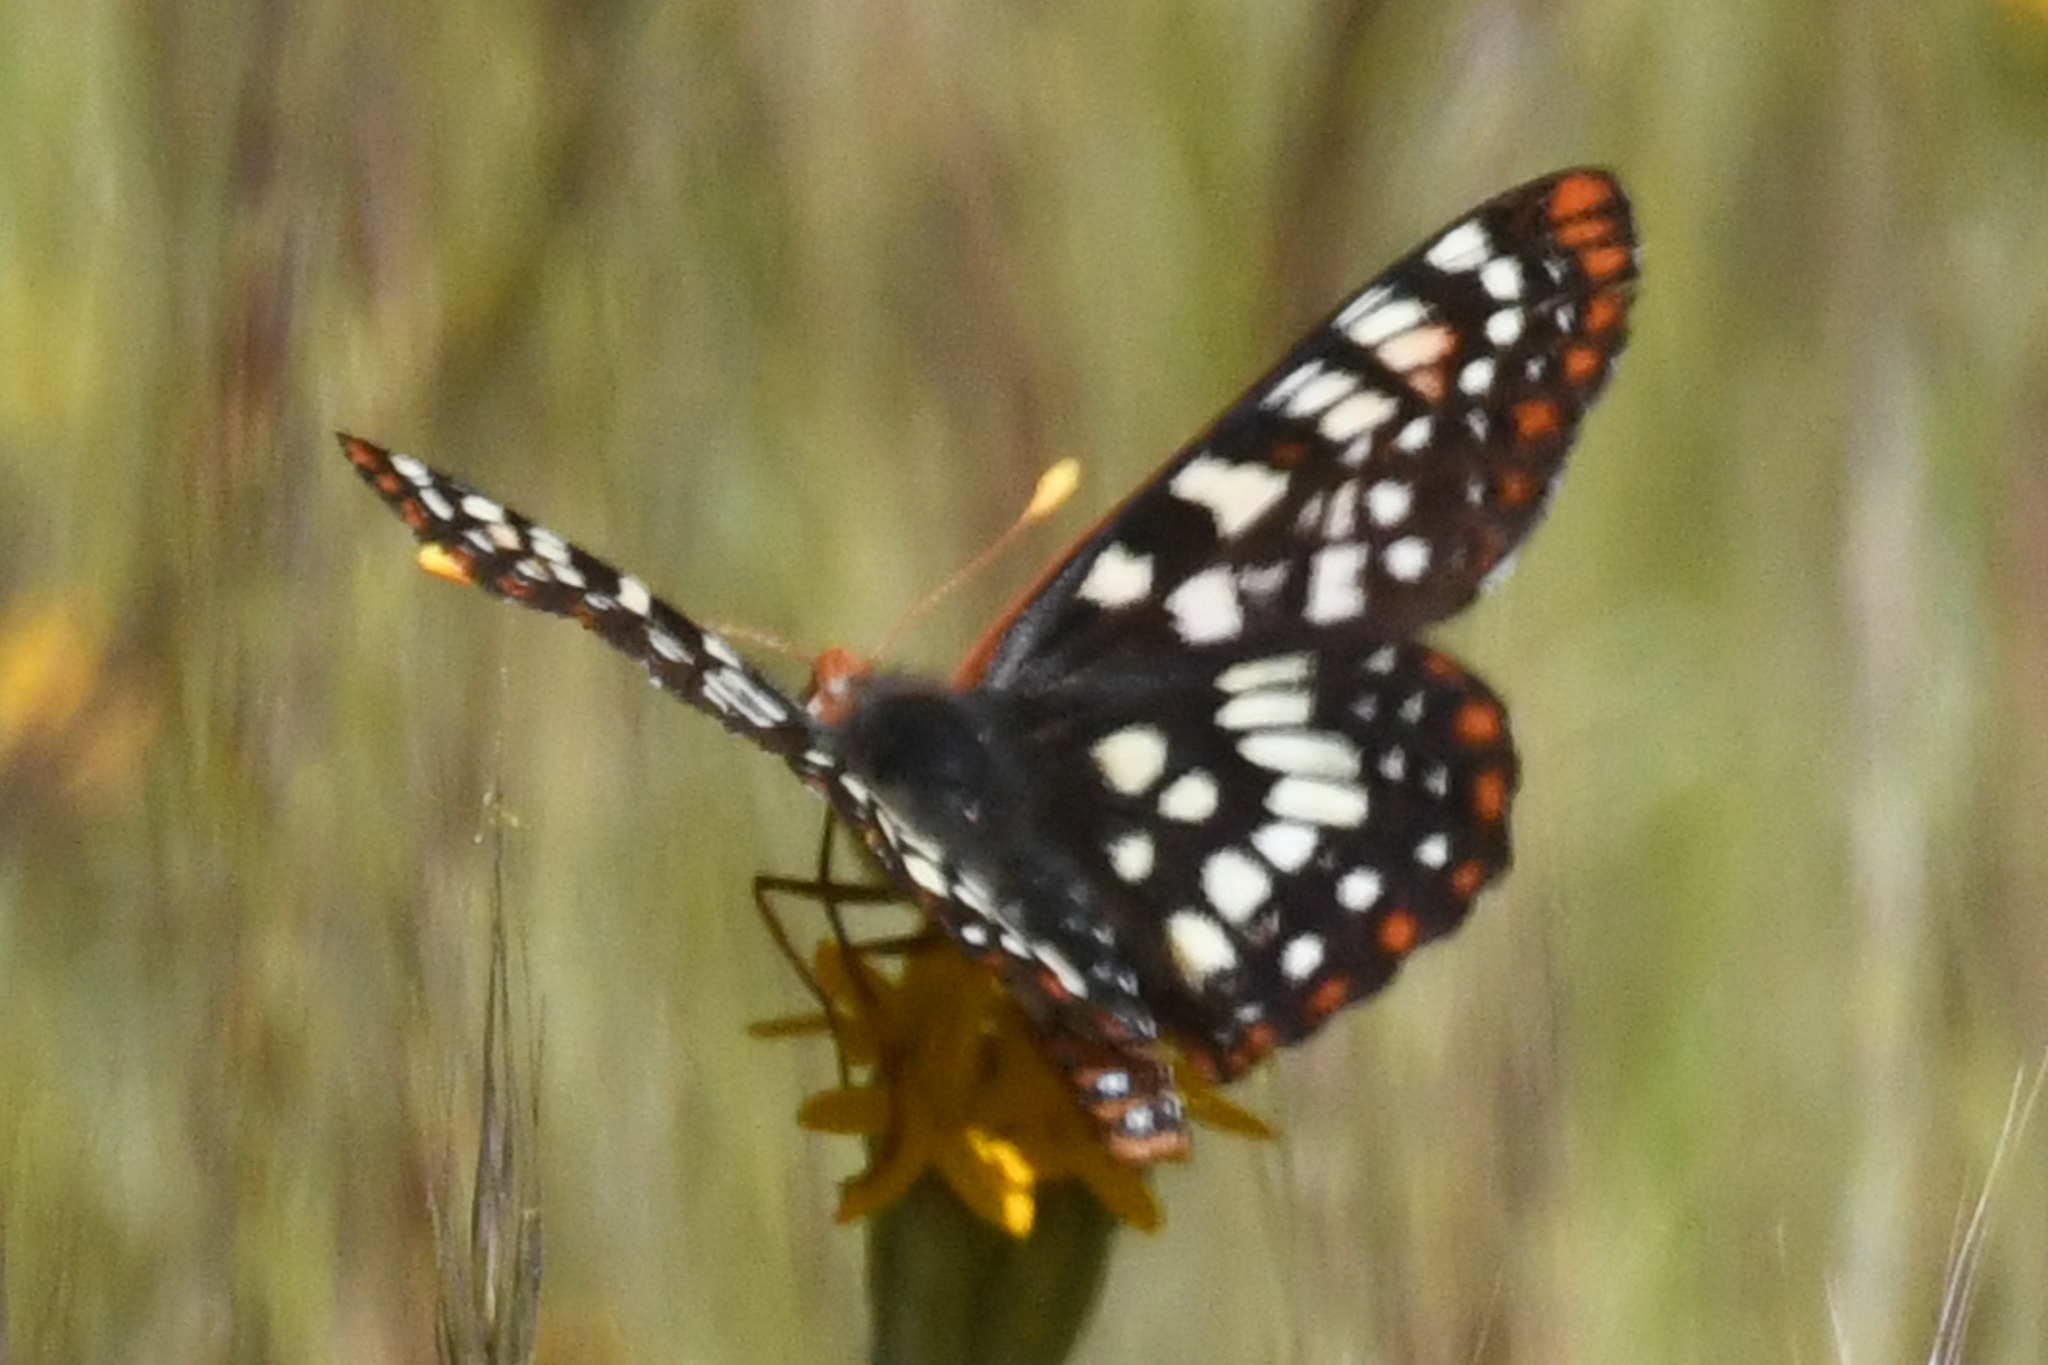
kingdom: Animalia
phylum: Arthropoda
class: Insecta
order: Lepidoptera
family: Nymphalidae
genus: Occidryas
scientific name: Occidryas chalcedona
